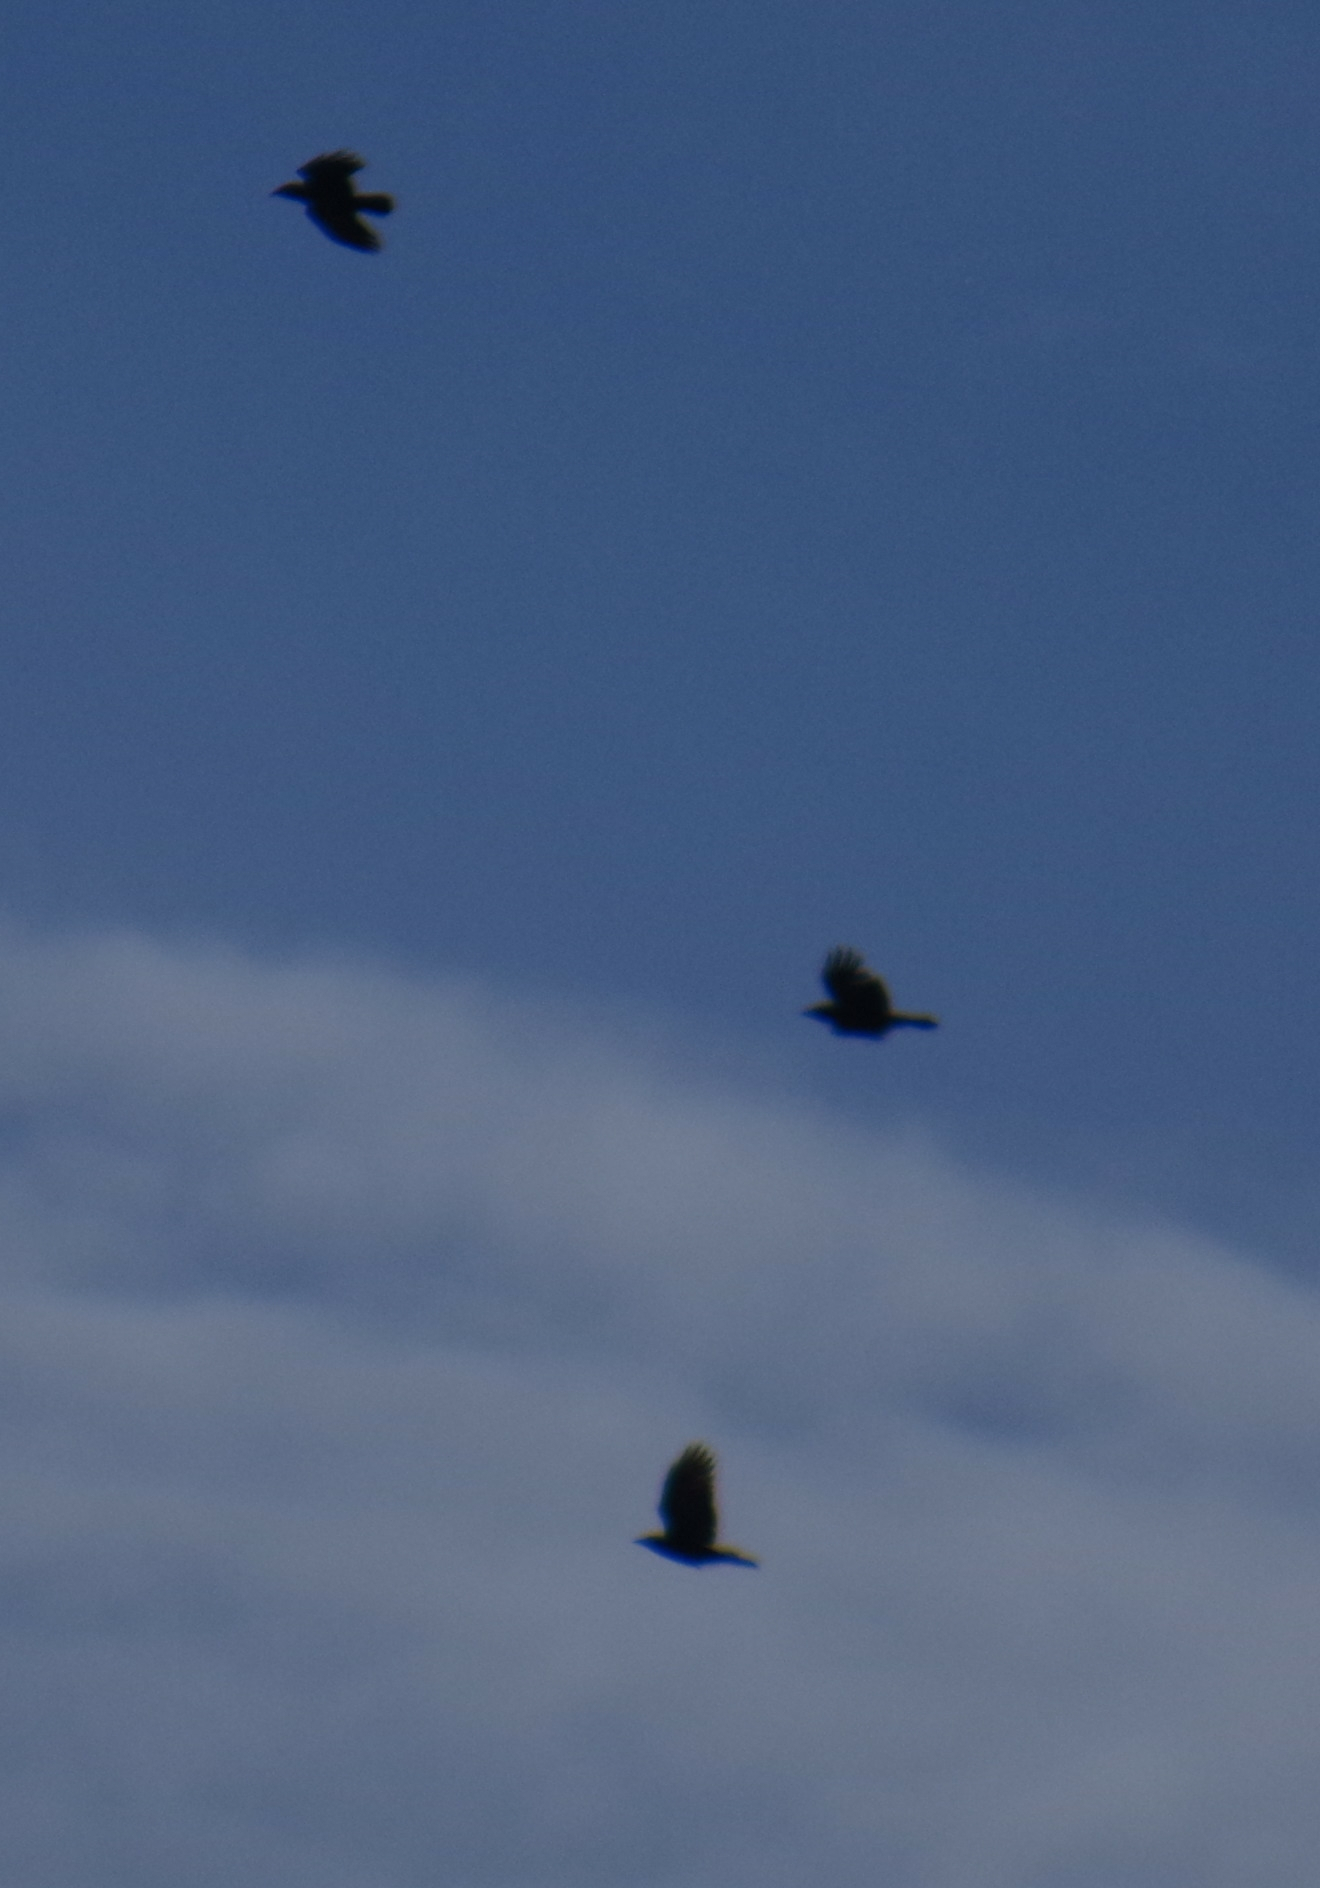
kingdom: Animalia
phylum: Chordata
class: Aves
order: Passeriformes
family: Corvidae
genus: Corvus
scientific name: Corvus brachyrhynchos
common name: American crow
